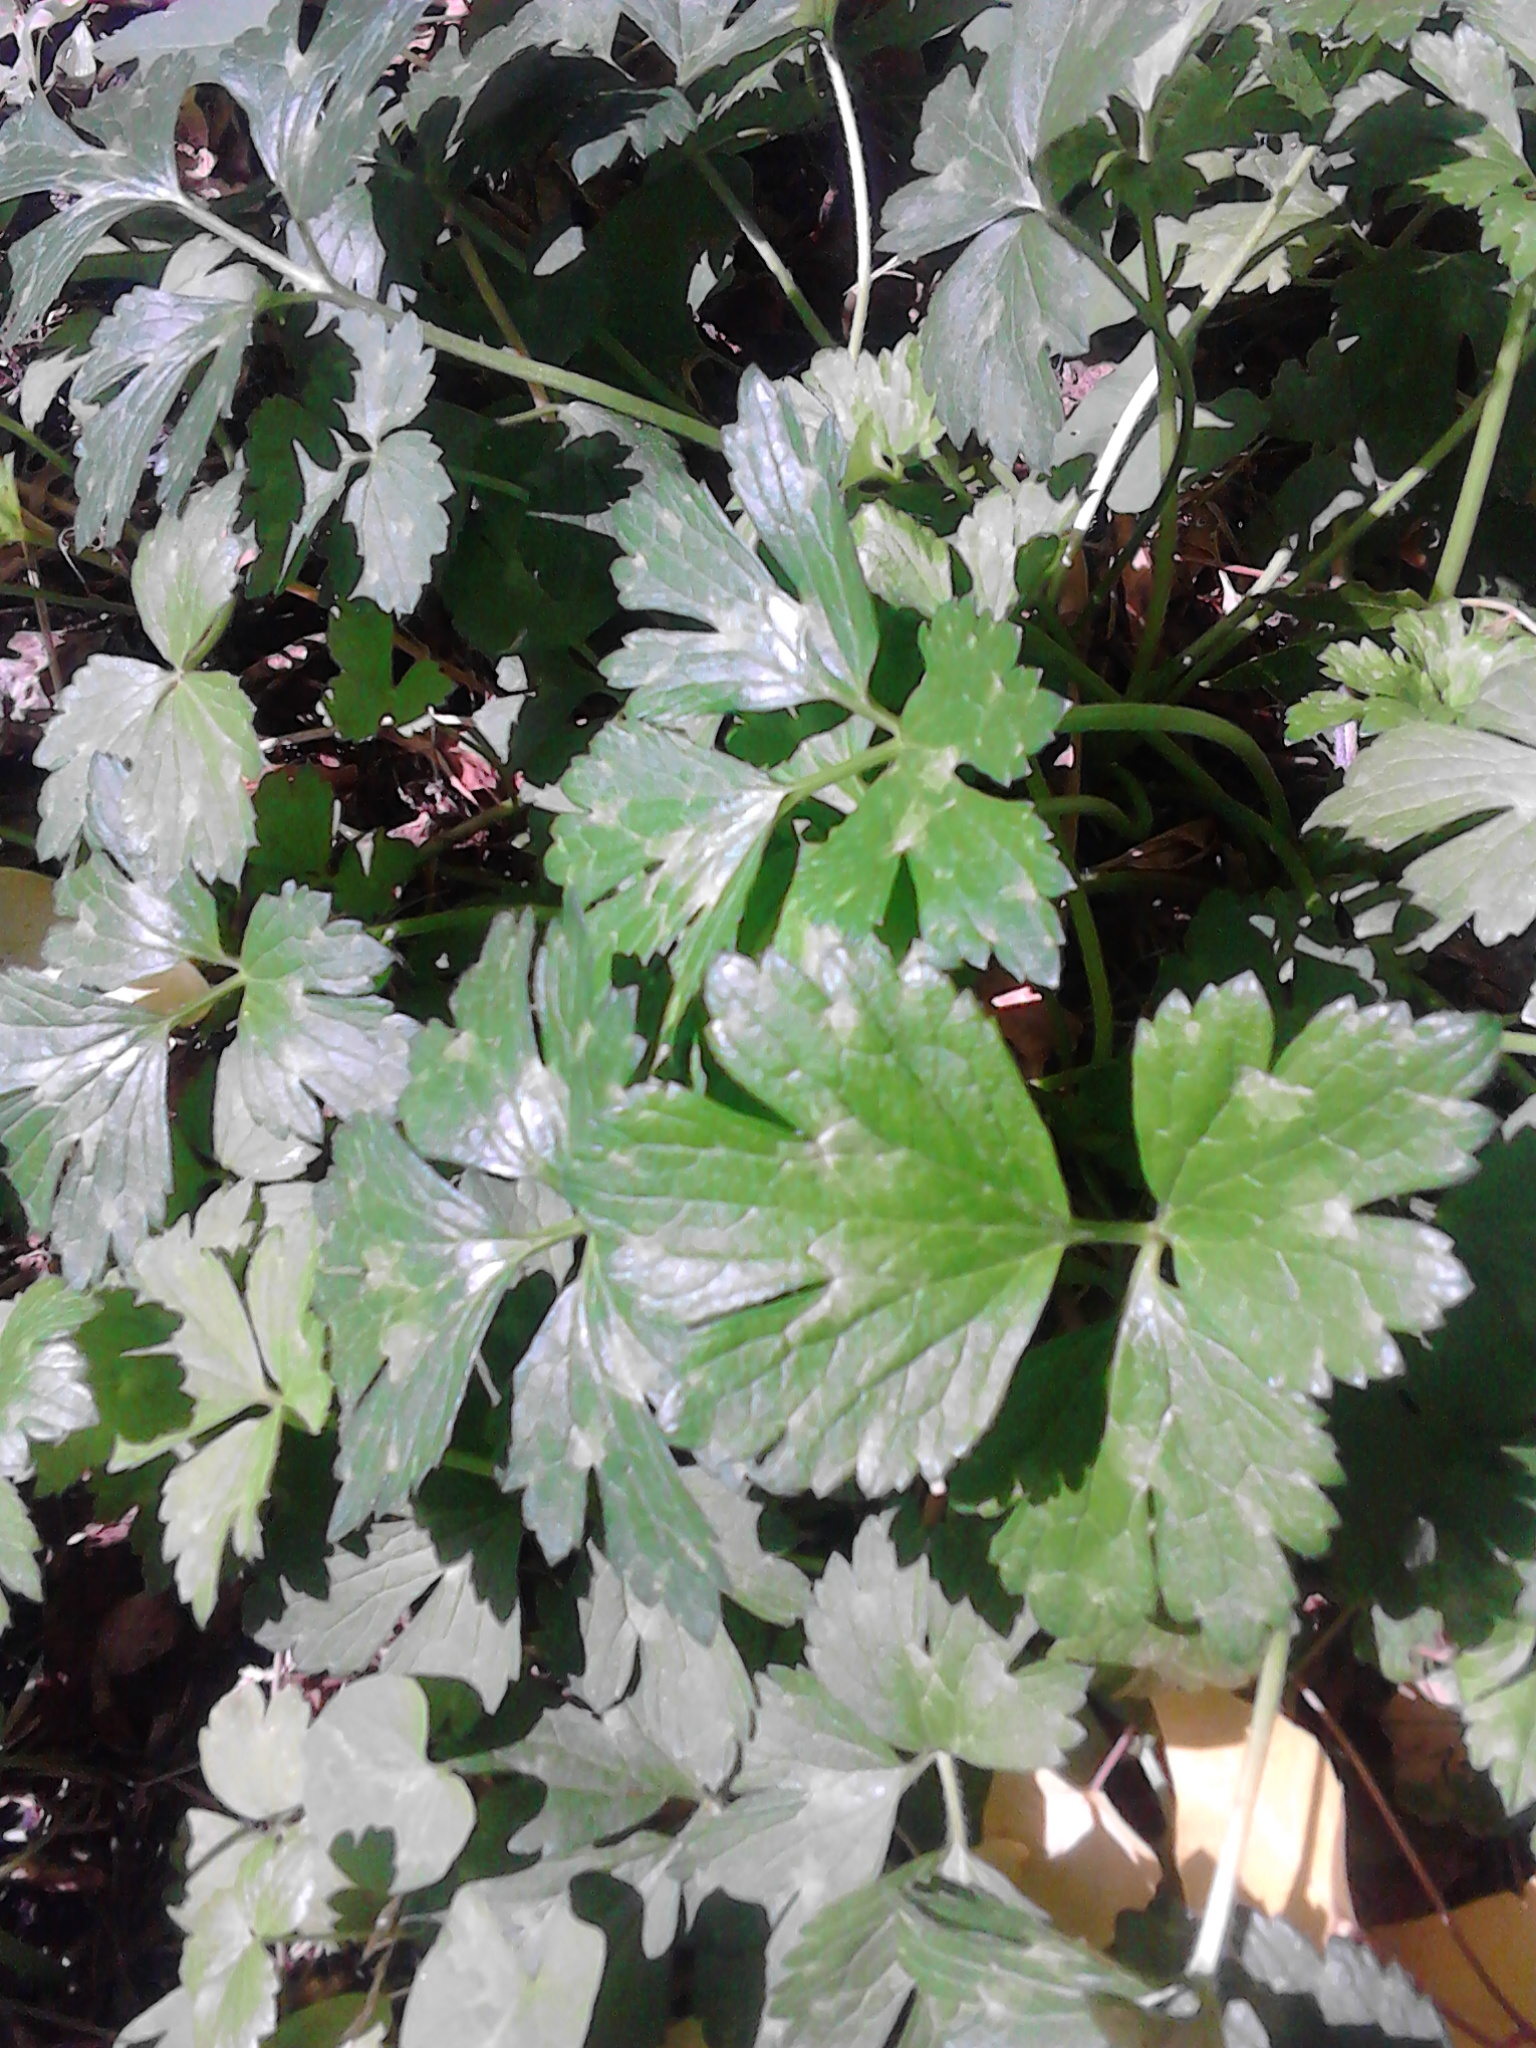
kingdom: Plantae
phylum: Tracheophyta
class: Magnoliopsida
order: Ranunculales
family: Ranunculaceae
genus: Ranunculus
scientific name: Ranunculus repens
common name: Creeping buttercup
